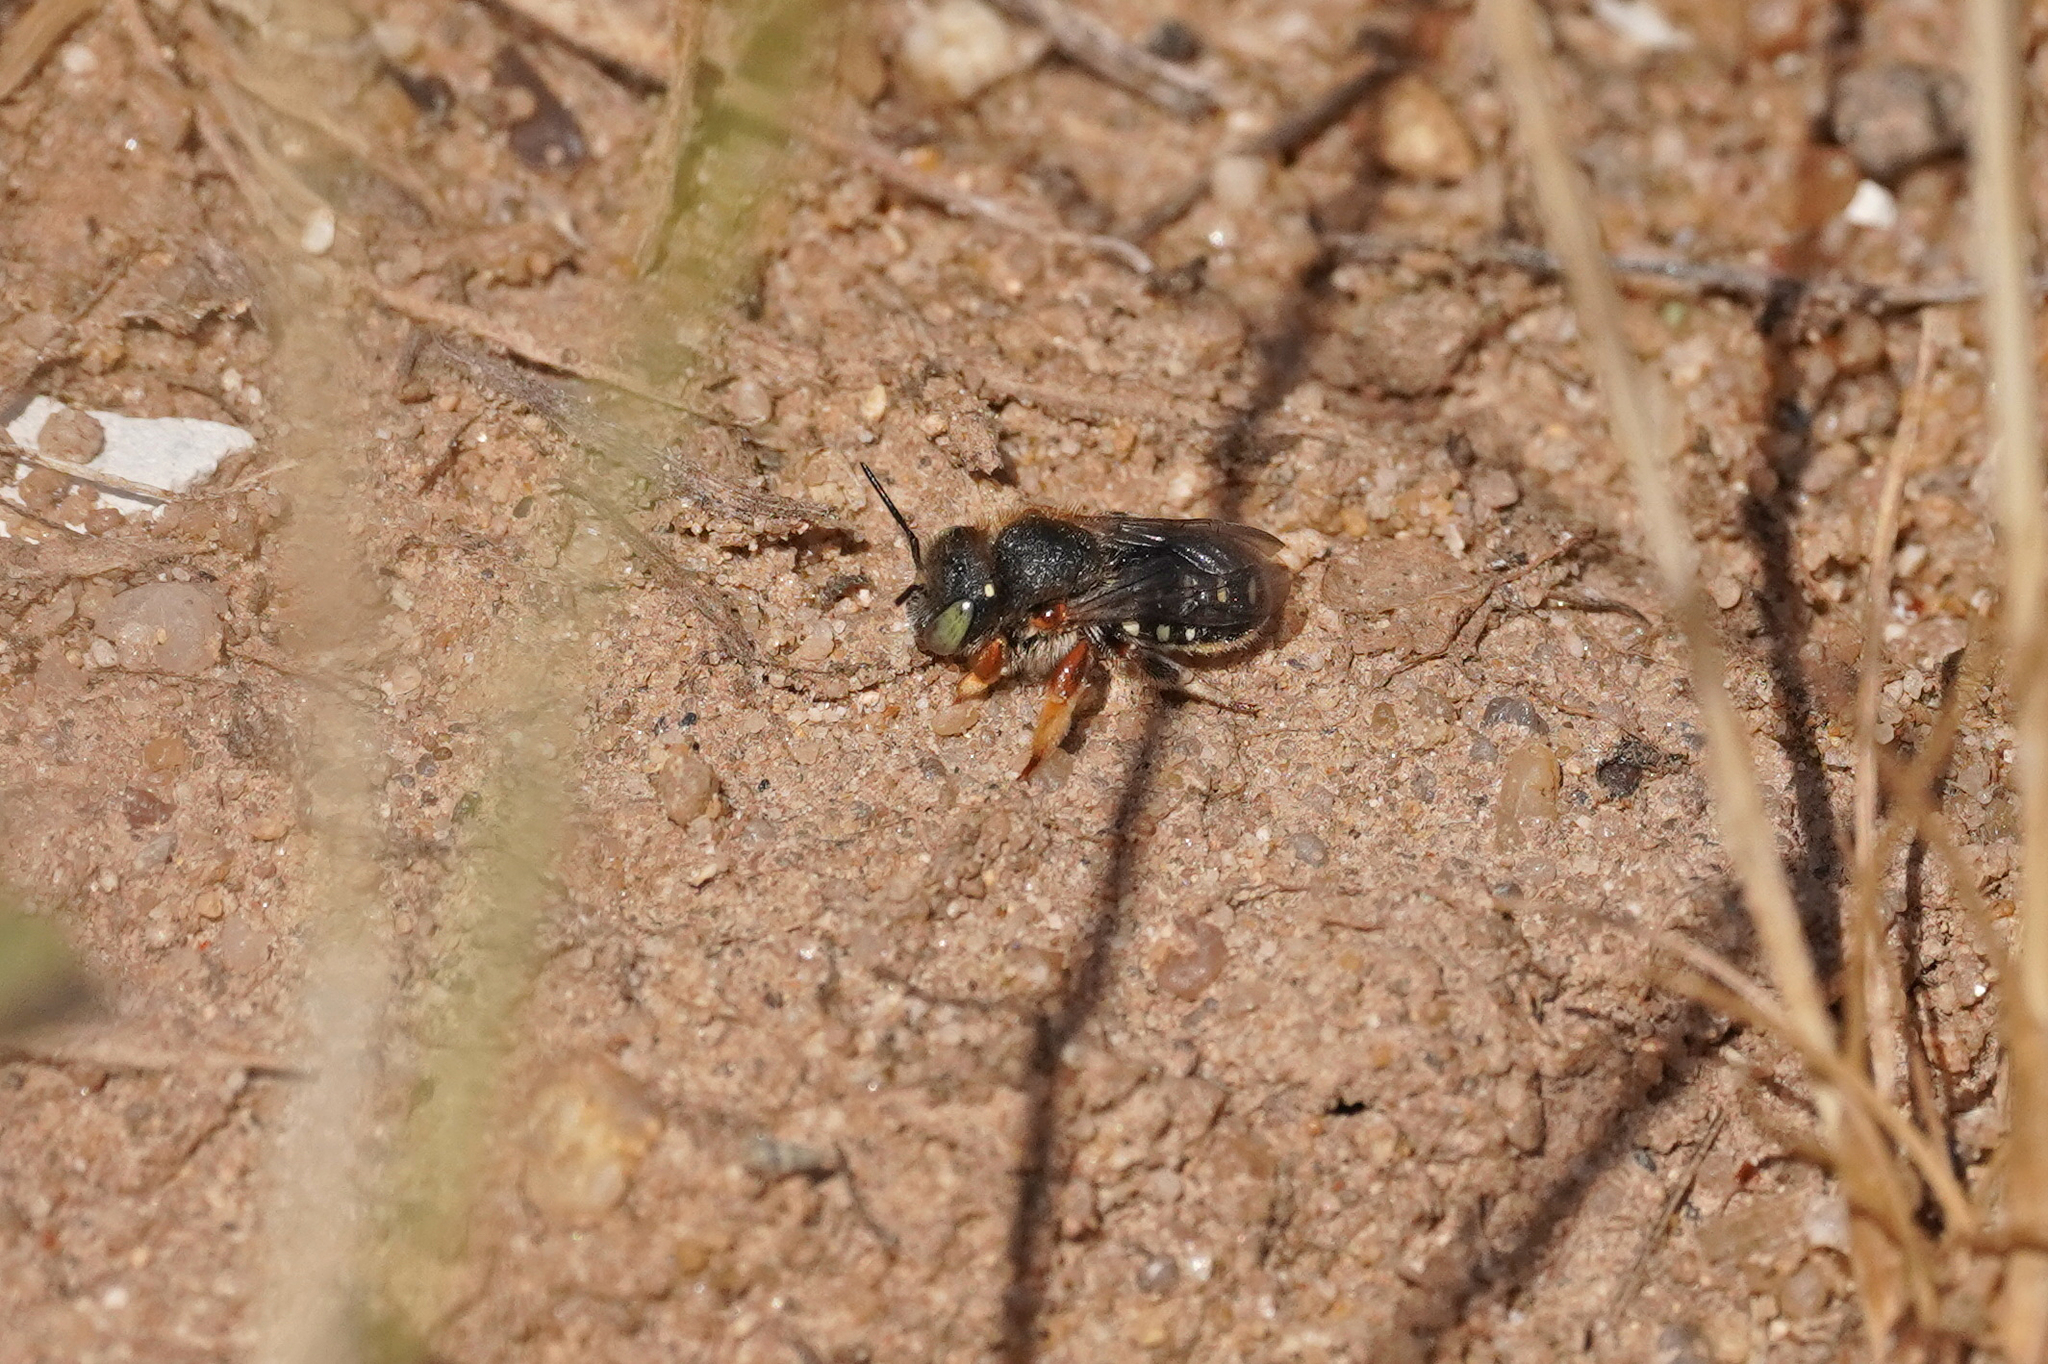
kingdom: Animalia
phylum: Arthropoda
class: Insecta
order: Hymenoptera
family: Megachilidae
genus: Anthidium
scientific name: Anthidium punctatum
